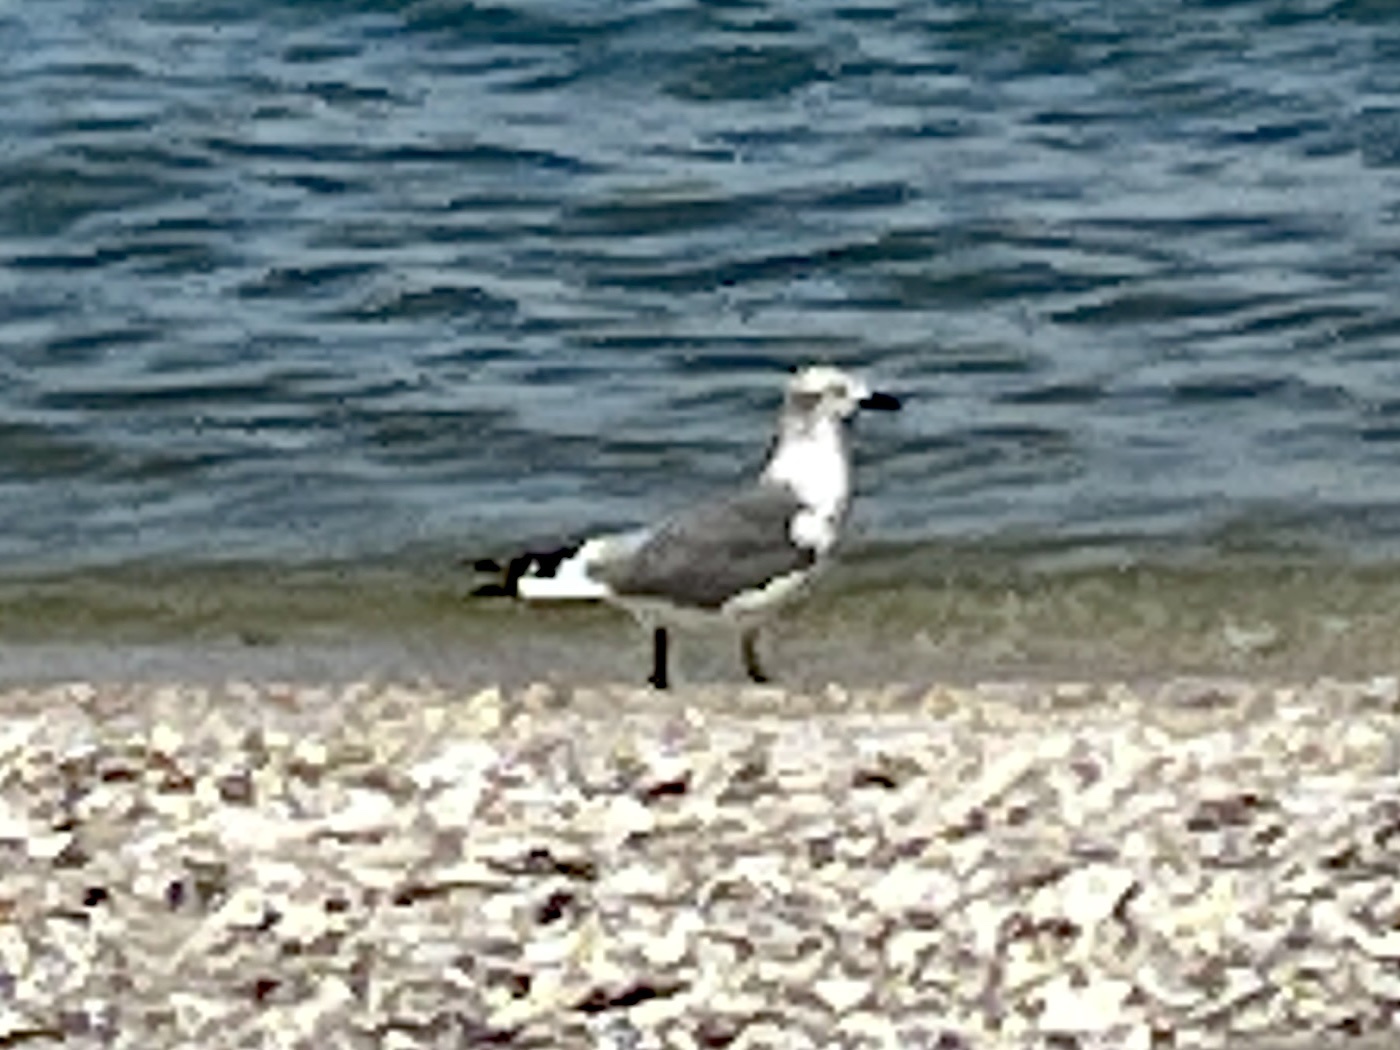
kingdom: Animalia
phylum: Chordata
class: Aves
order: Charadriiformes
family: Laridae
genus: Leucophaeus
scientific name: Leucophaeus atricilla
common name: Laughing gull
